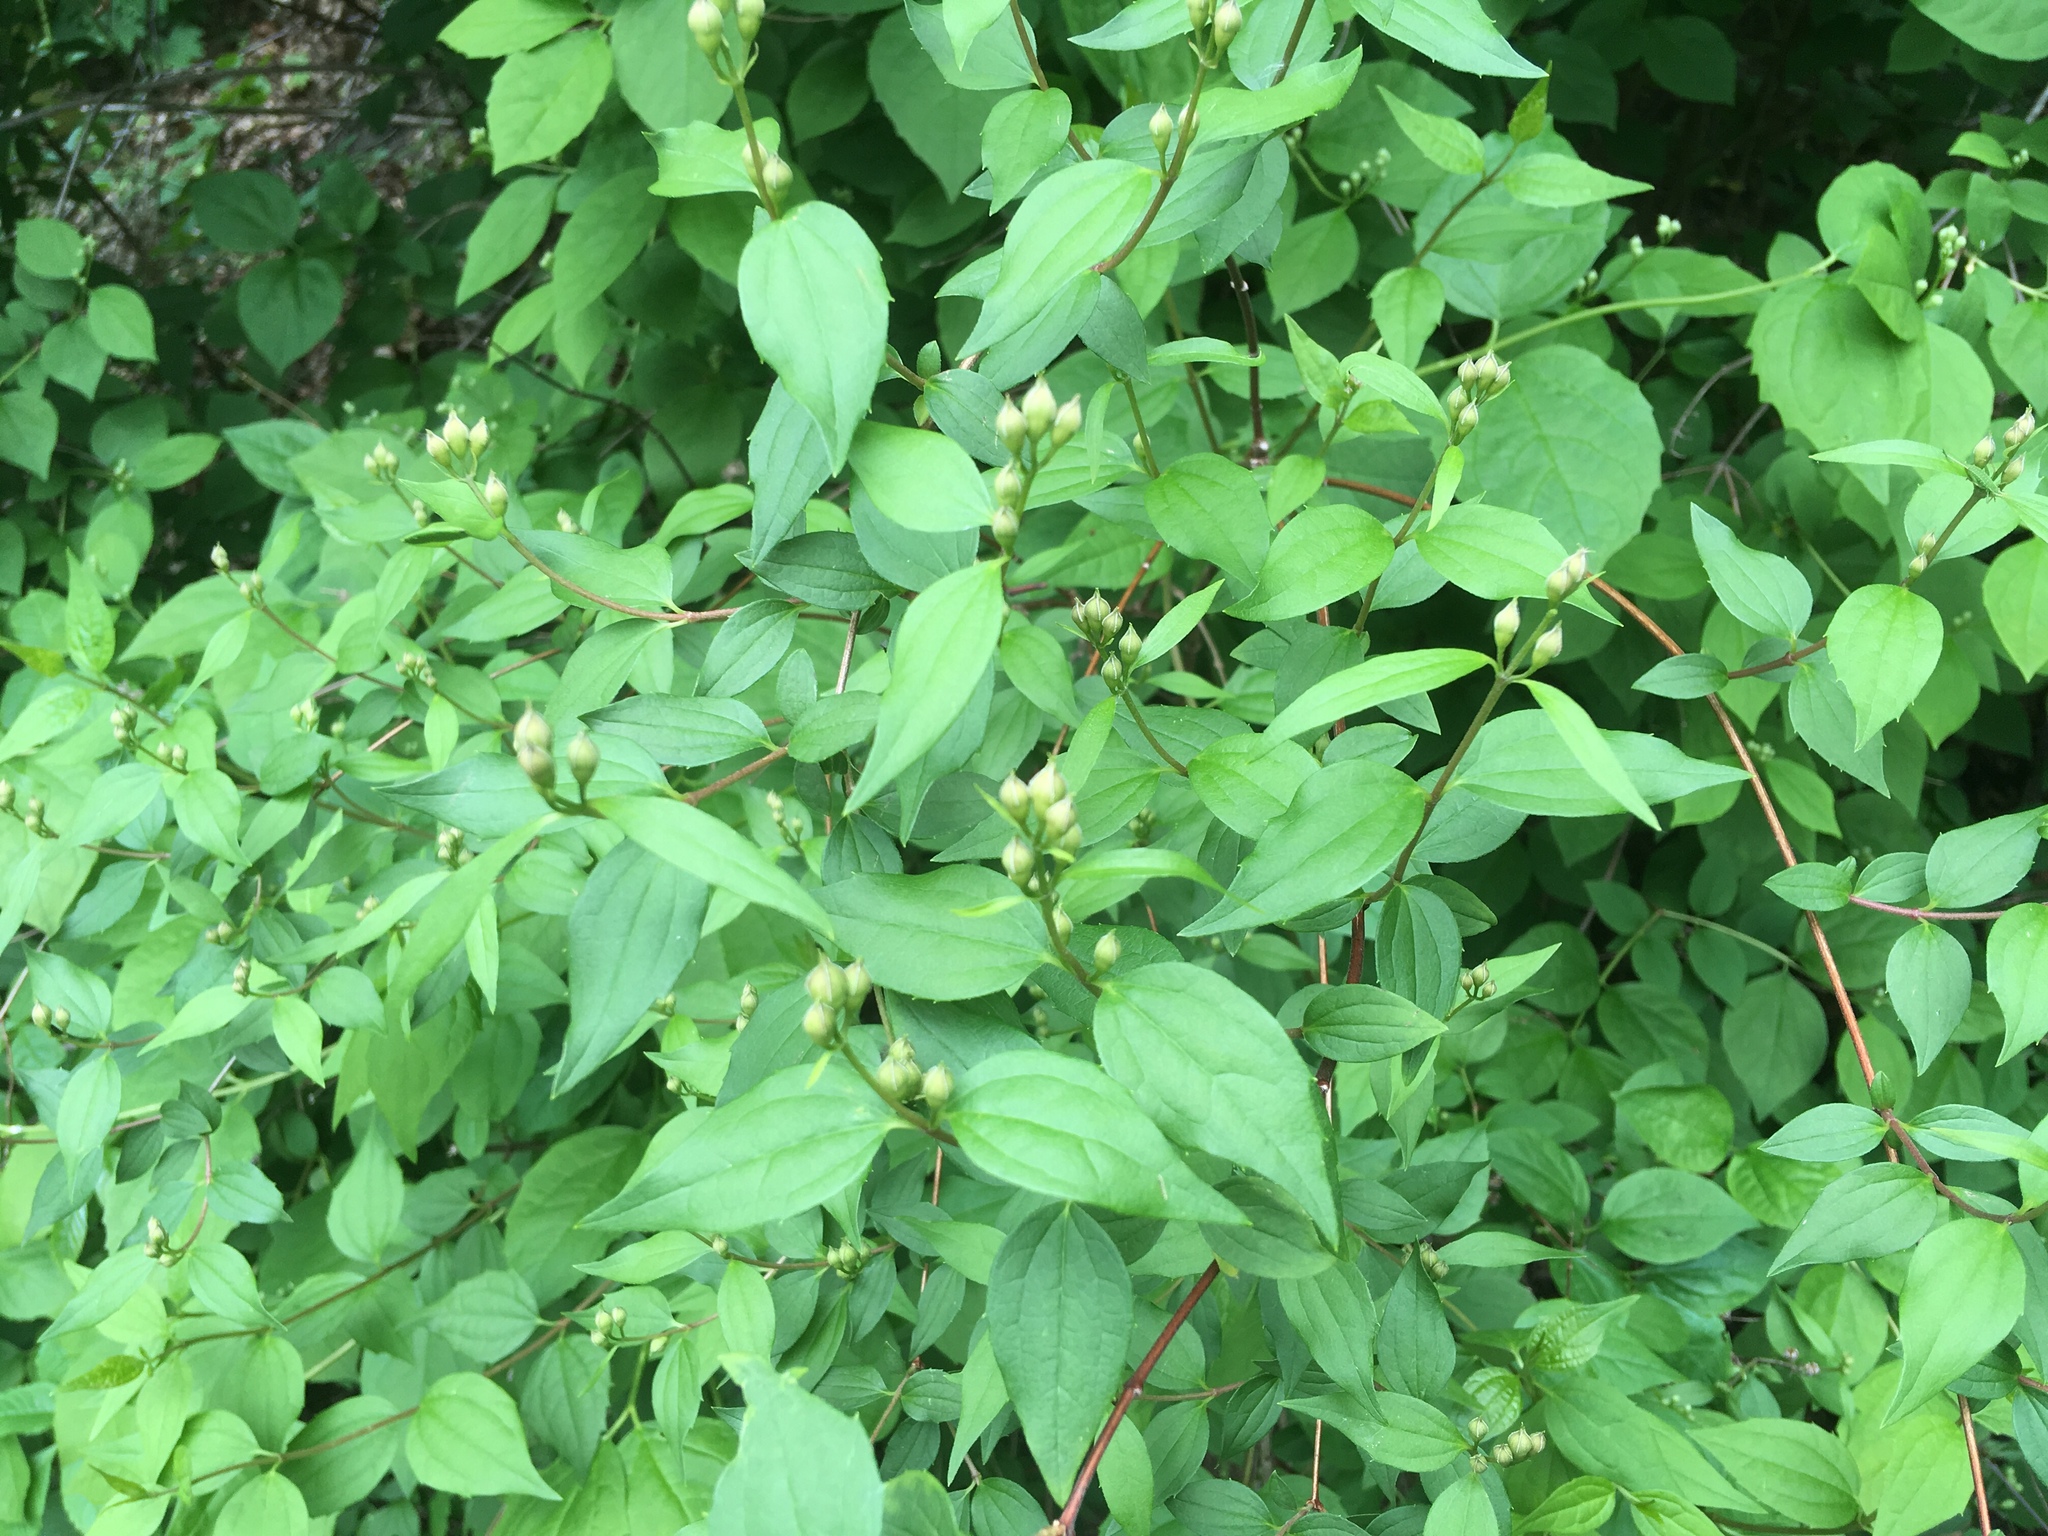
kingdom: Plantae
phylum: Tracheophyta
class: Magnoliopsida
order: Cornales
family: Hydrangeaceae
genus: Philadelphus
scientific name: Philadelphus coronarius
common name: Mock orange
